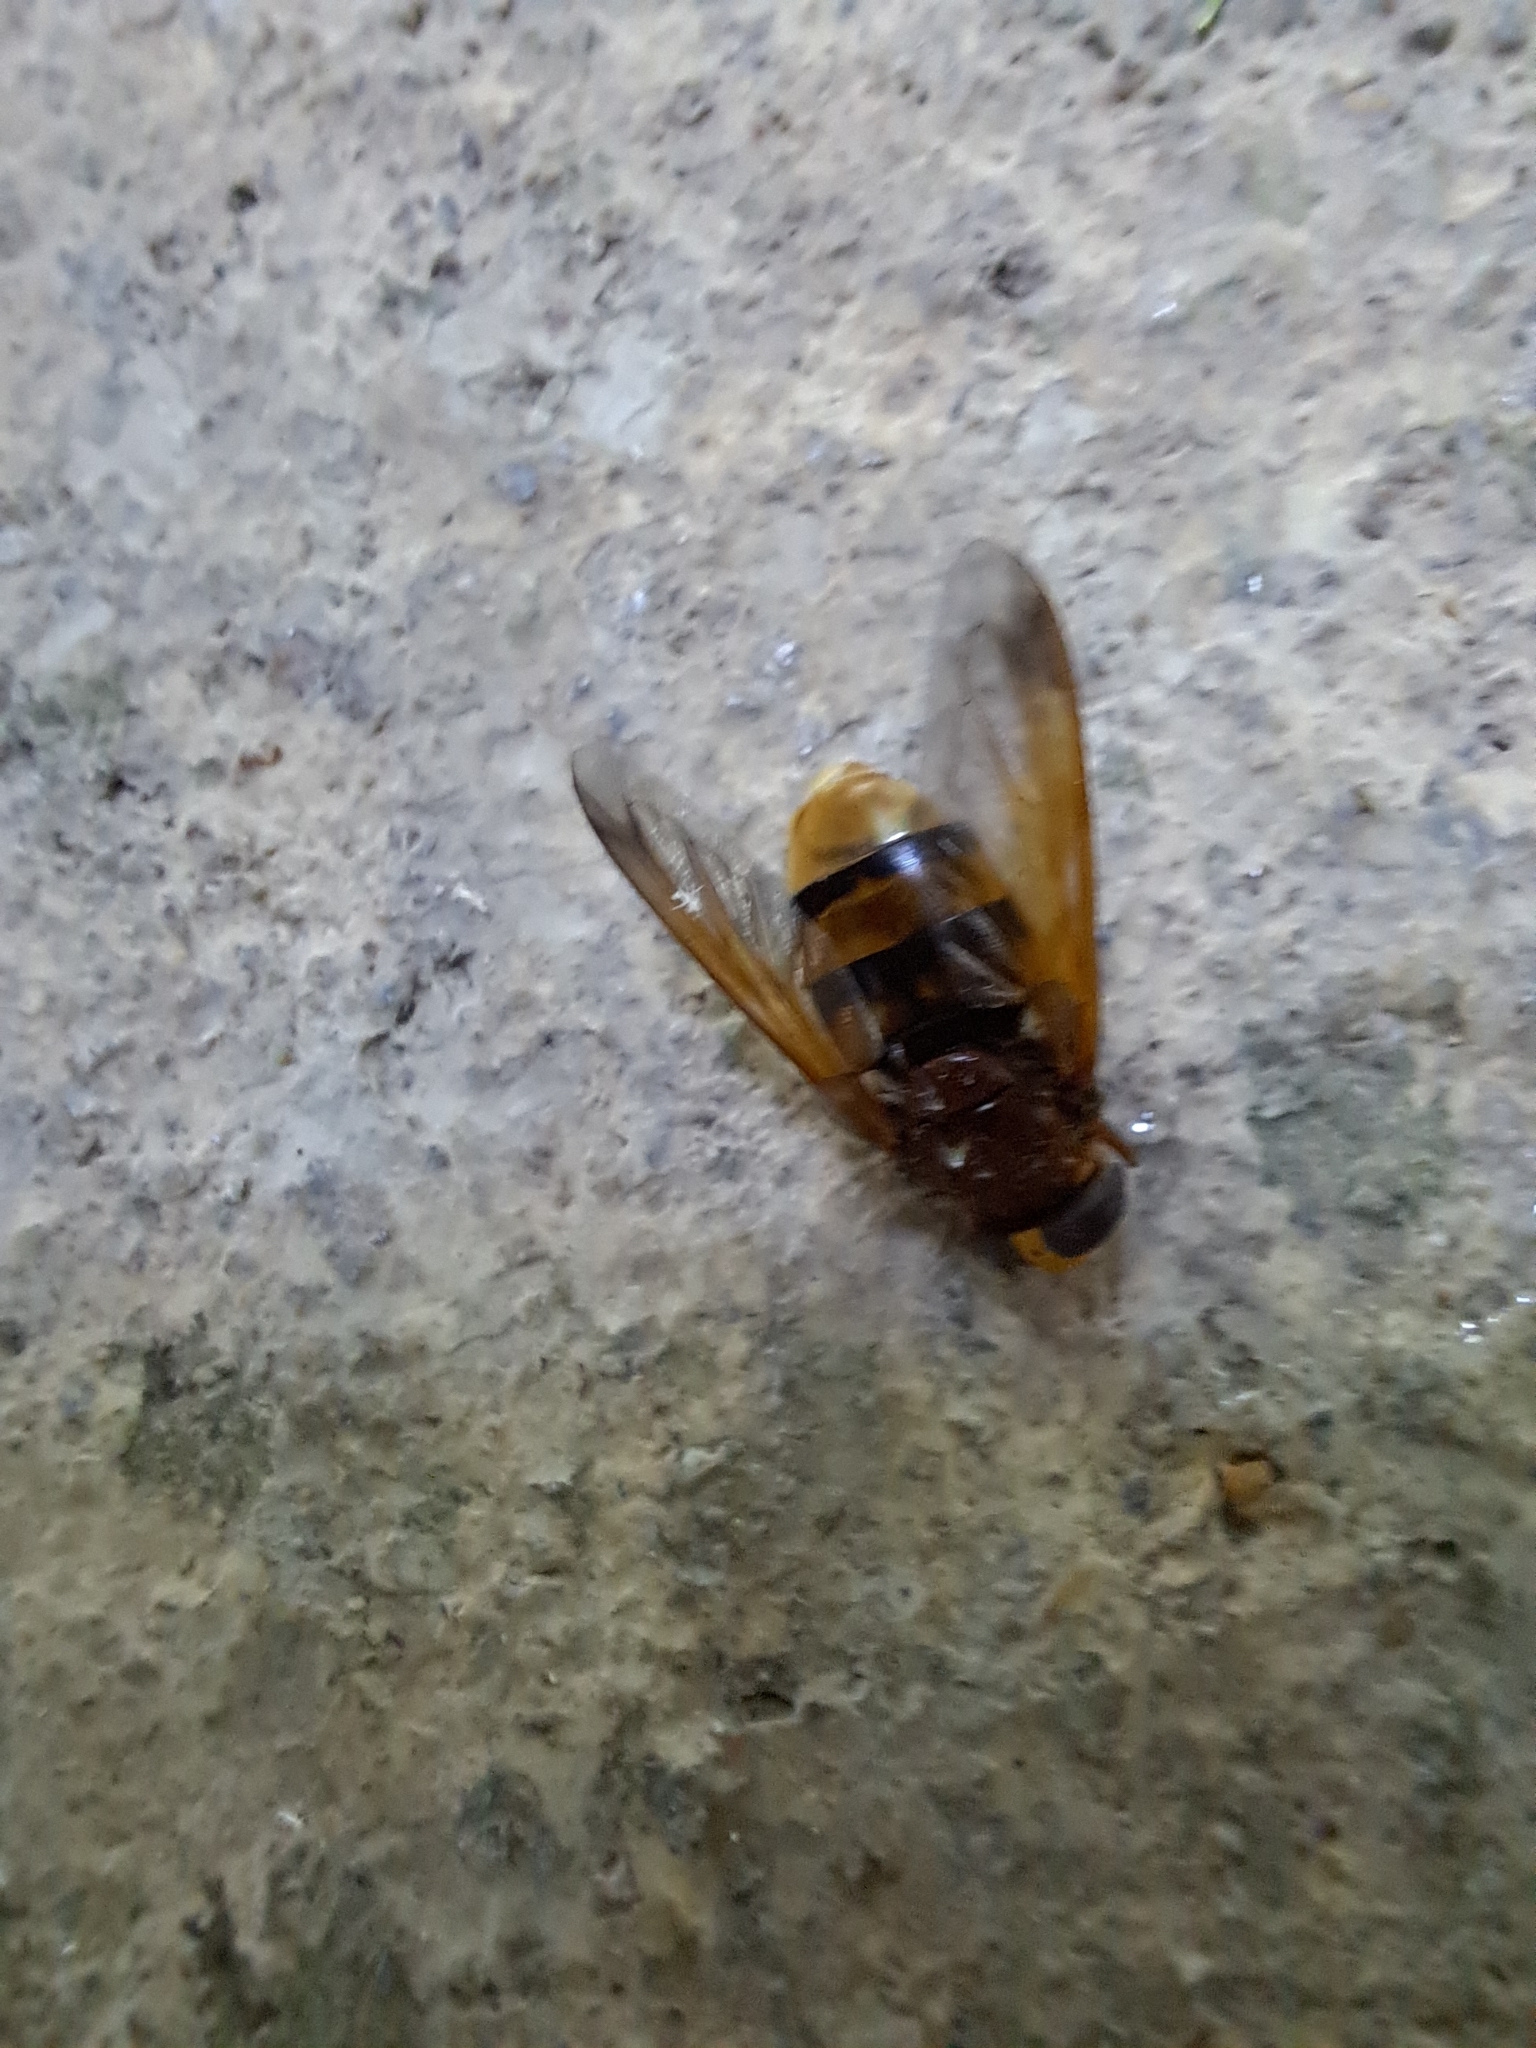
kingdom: Animalia
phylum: Arthropoda
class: Insecta
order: Diptera
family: Syrphidae
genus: Volucella
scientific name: Volucella zonaria
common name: Hornet hoverfly
